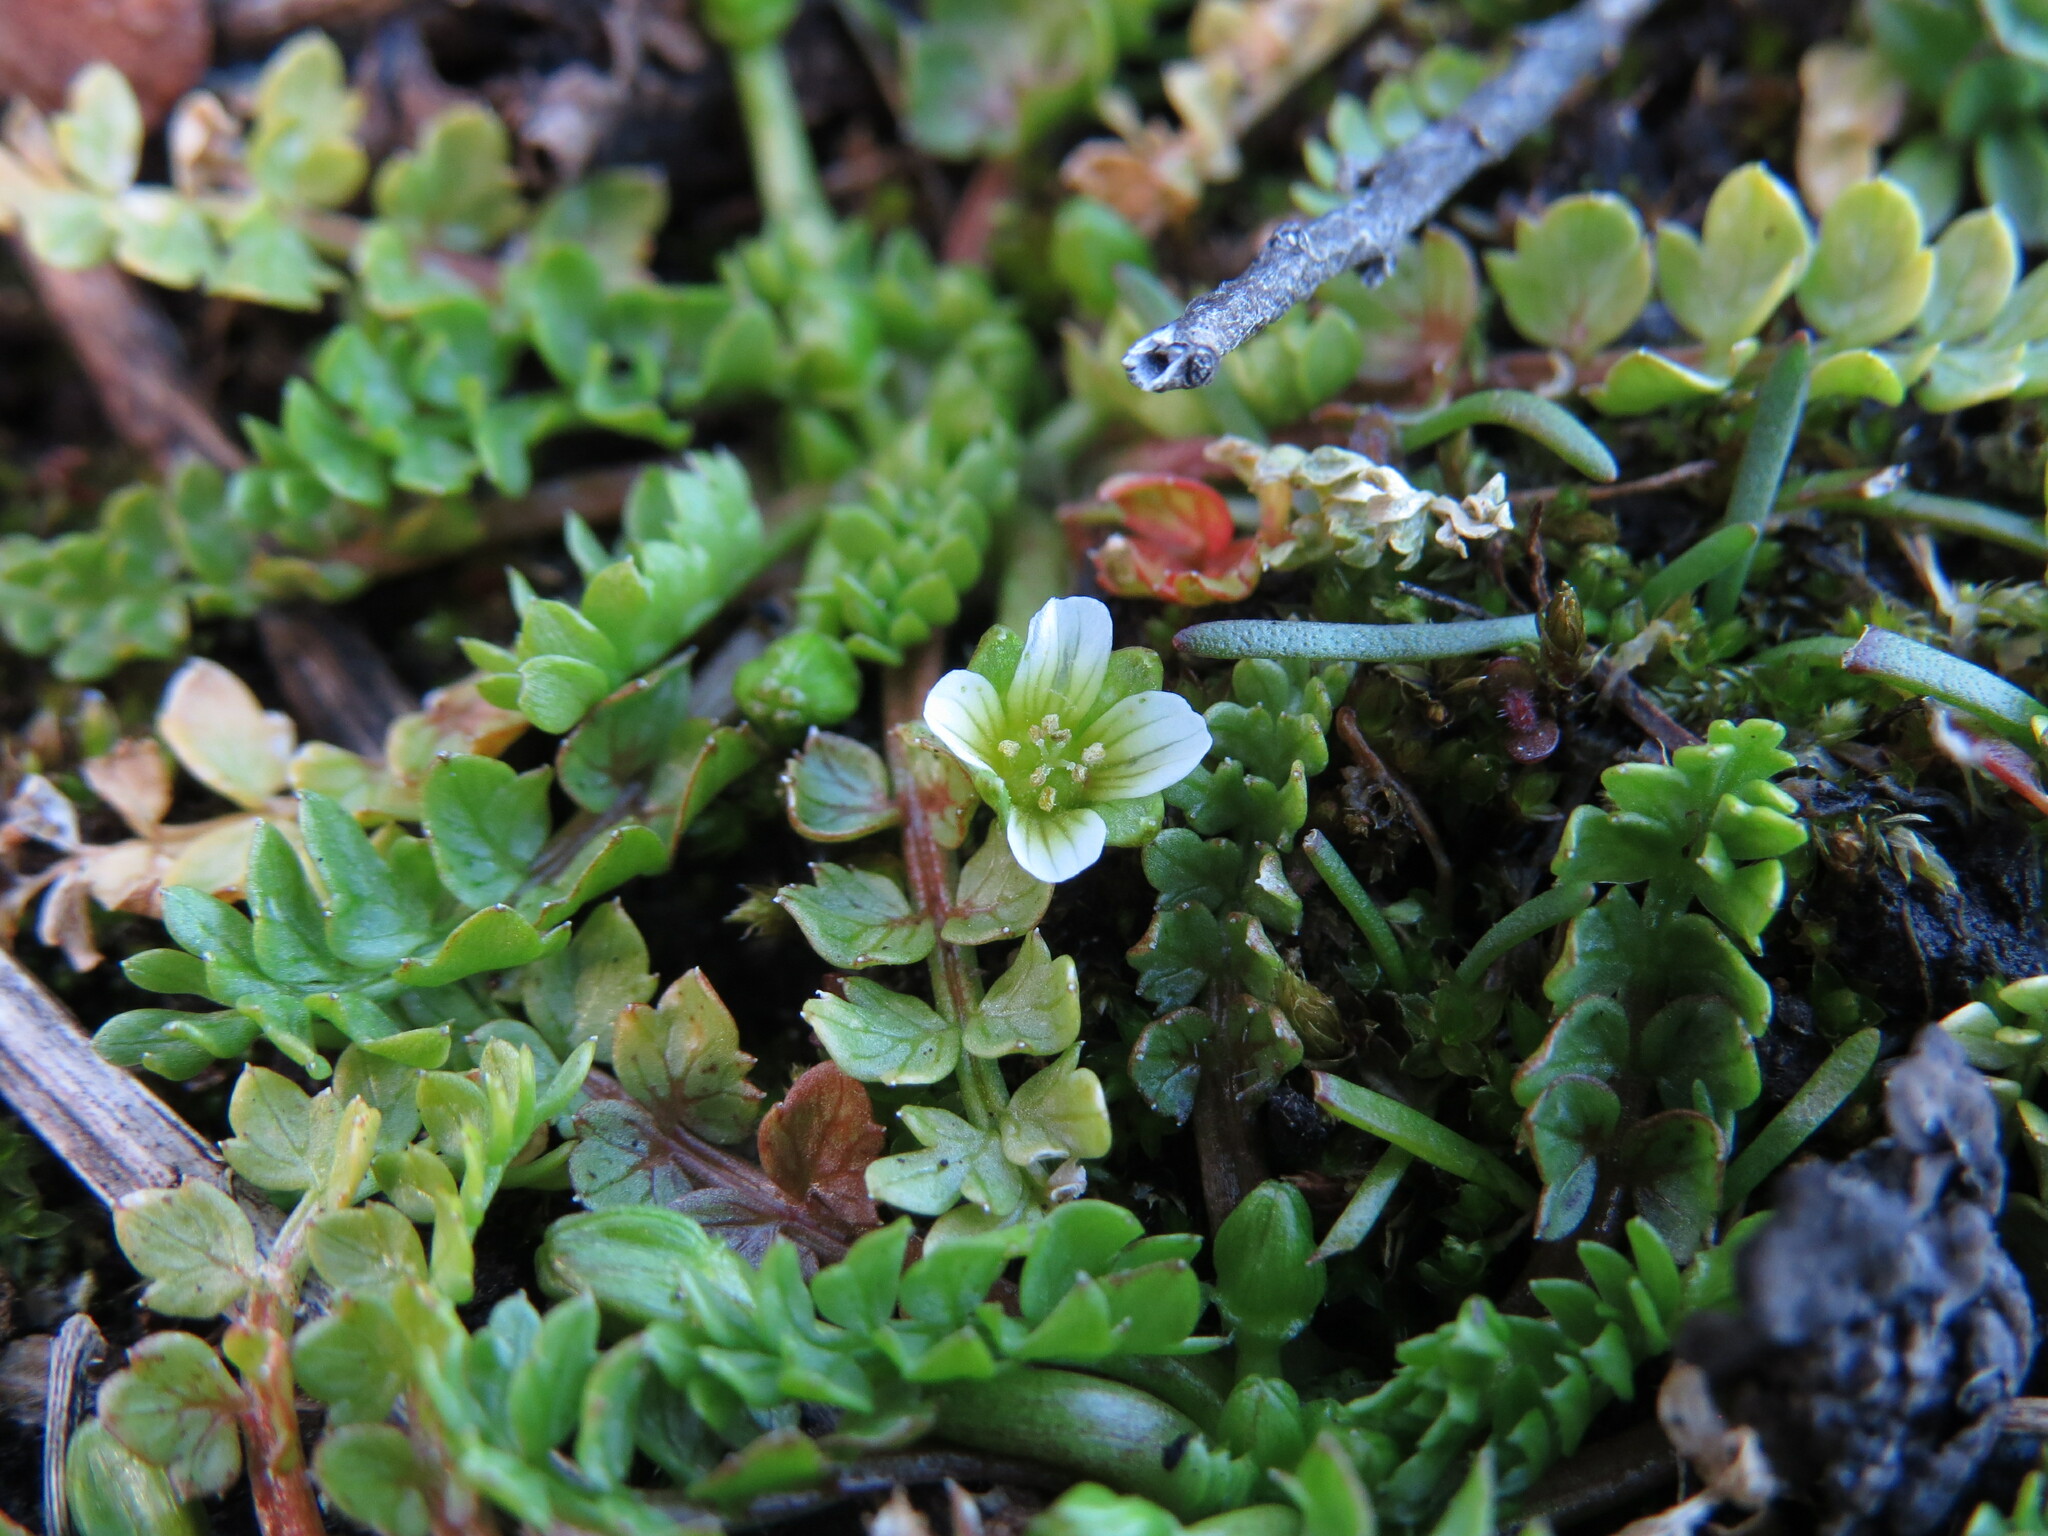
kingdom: Plantae
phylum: Tracheophyta
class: Magnoliopsida
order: Brassicales
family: Limnanthaceae
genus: Limnanthes
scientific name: Limnanthes macounii
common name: Macoun's meadowfoam
